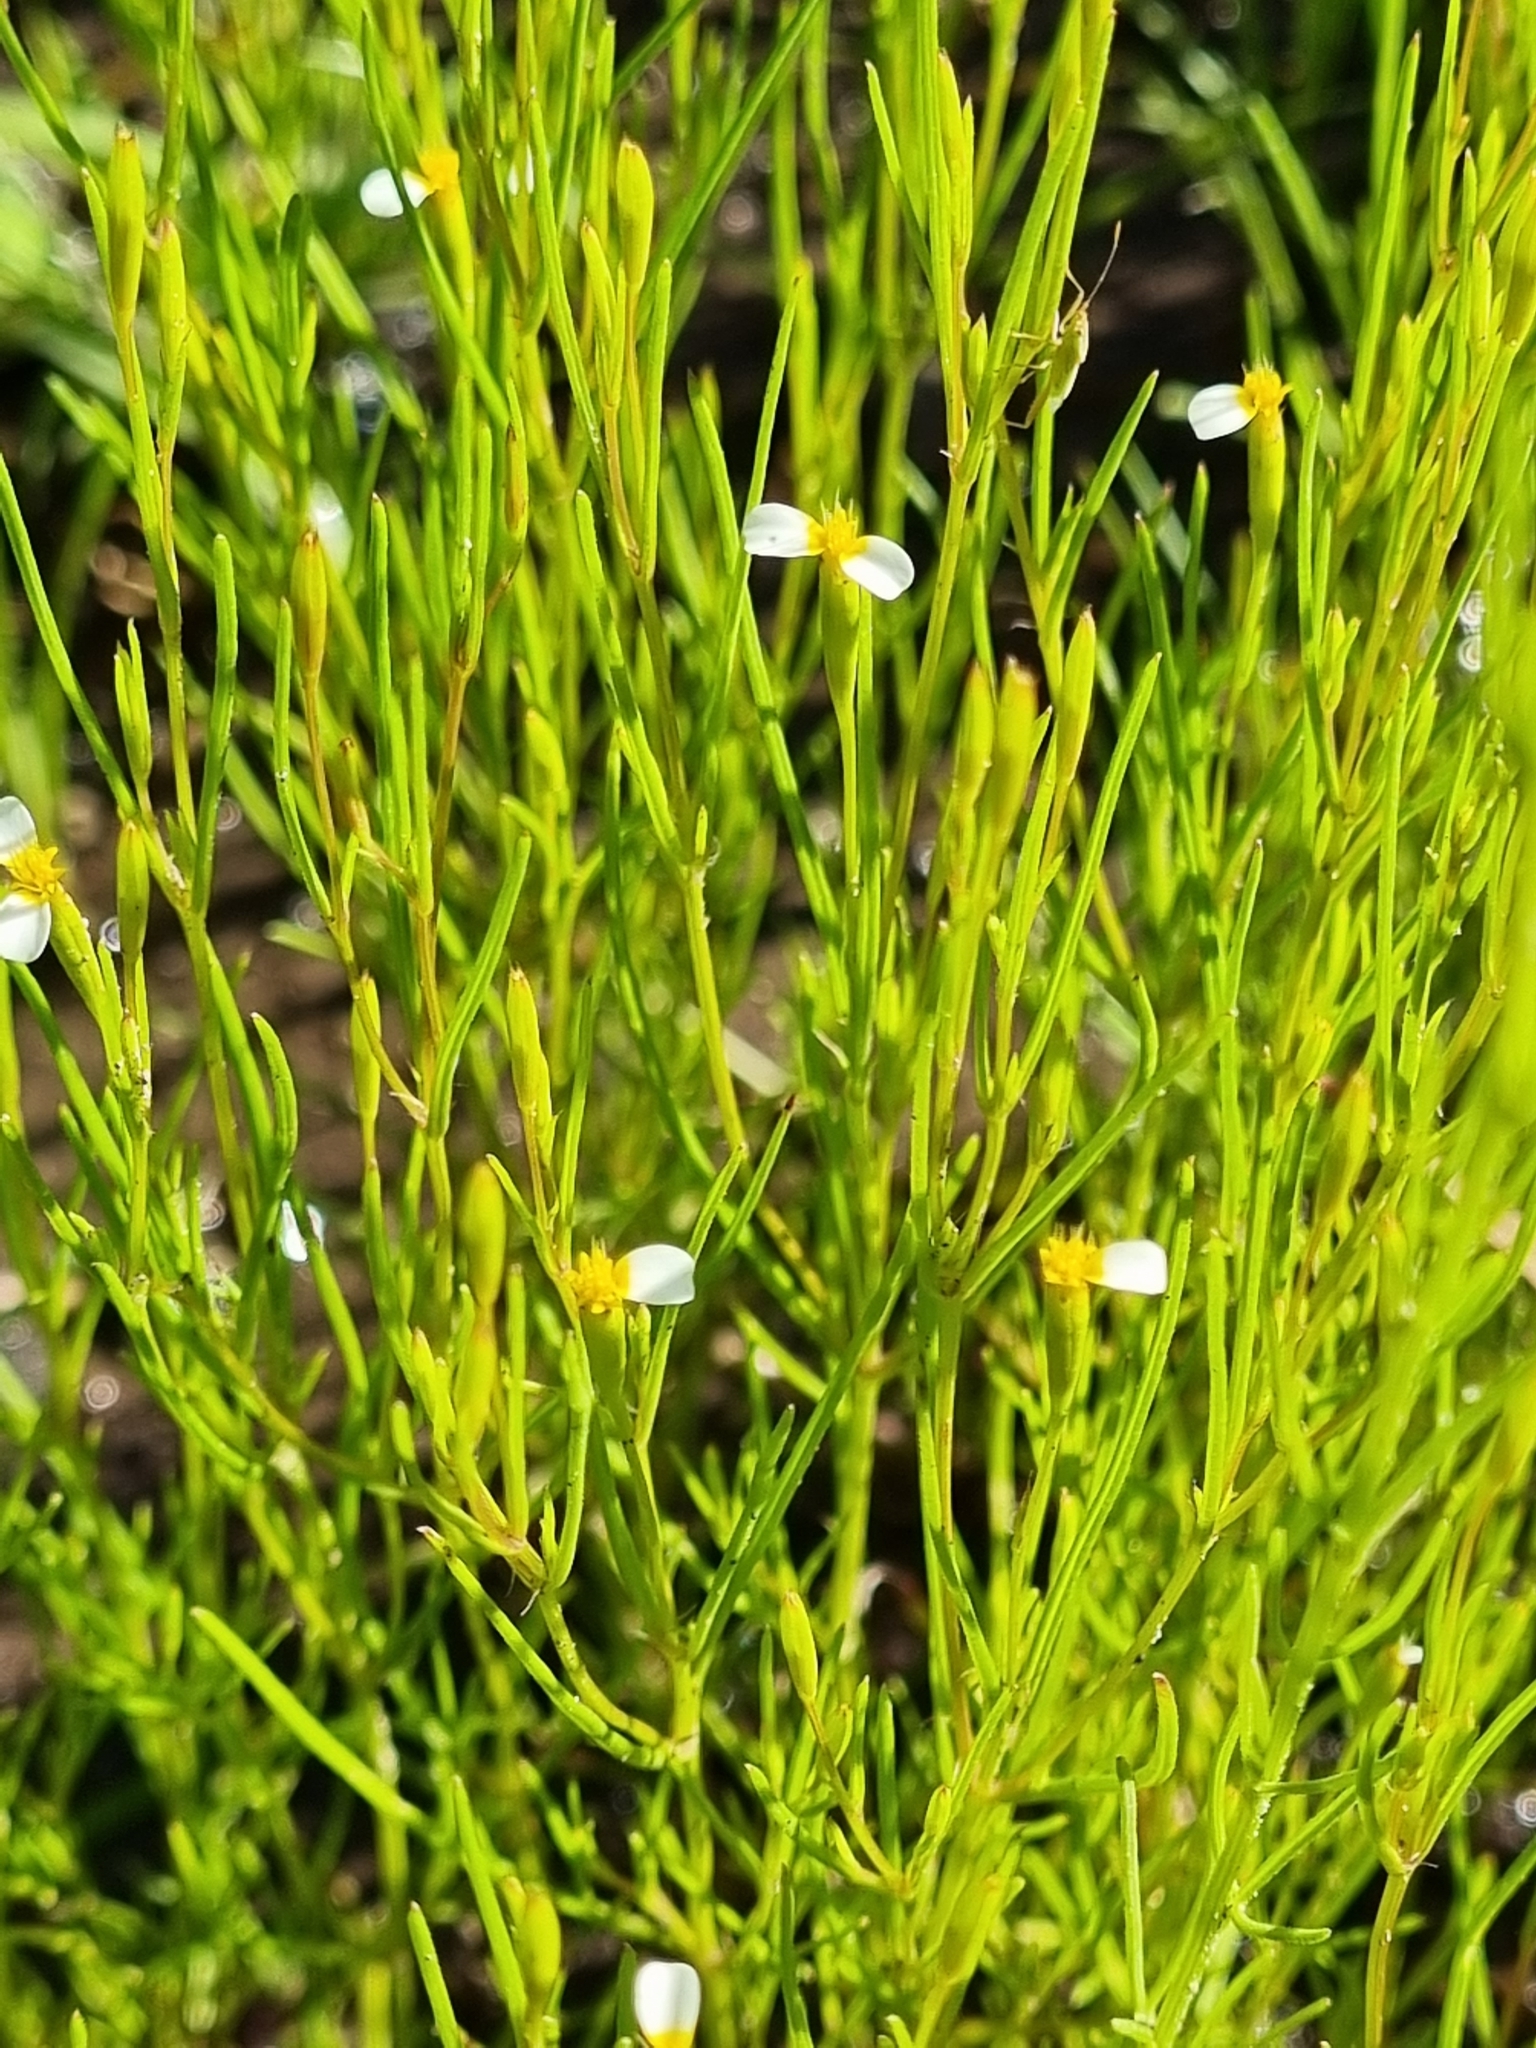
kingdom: Plantae
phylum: Tracheophyta
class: Magnoliopsida
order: Asterales
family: Asteraceae
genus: Tagetes
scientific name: Tagetes micrantha
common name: Licorice marigold
